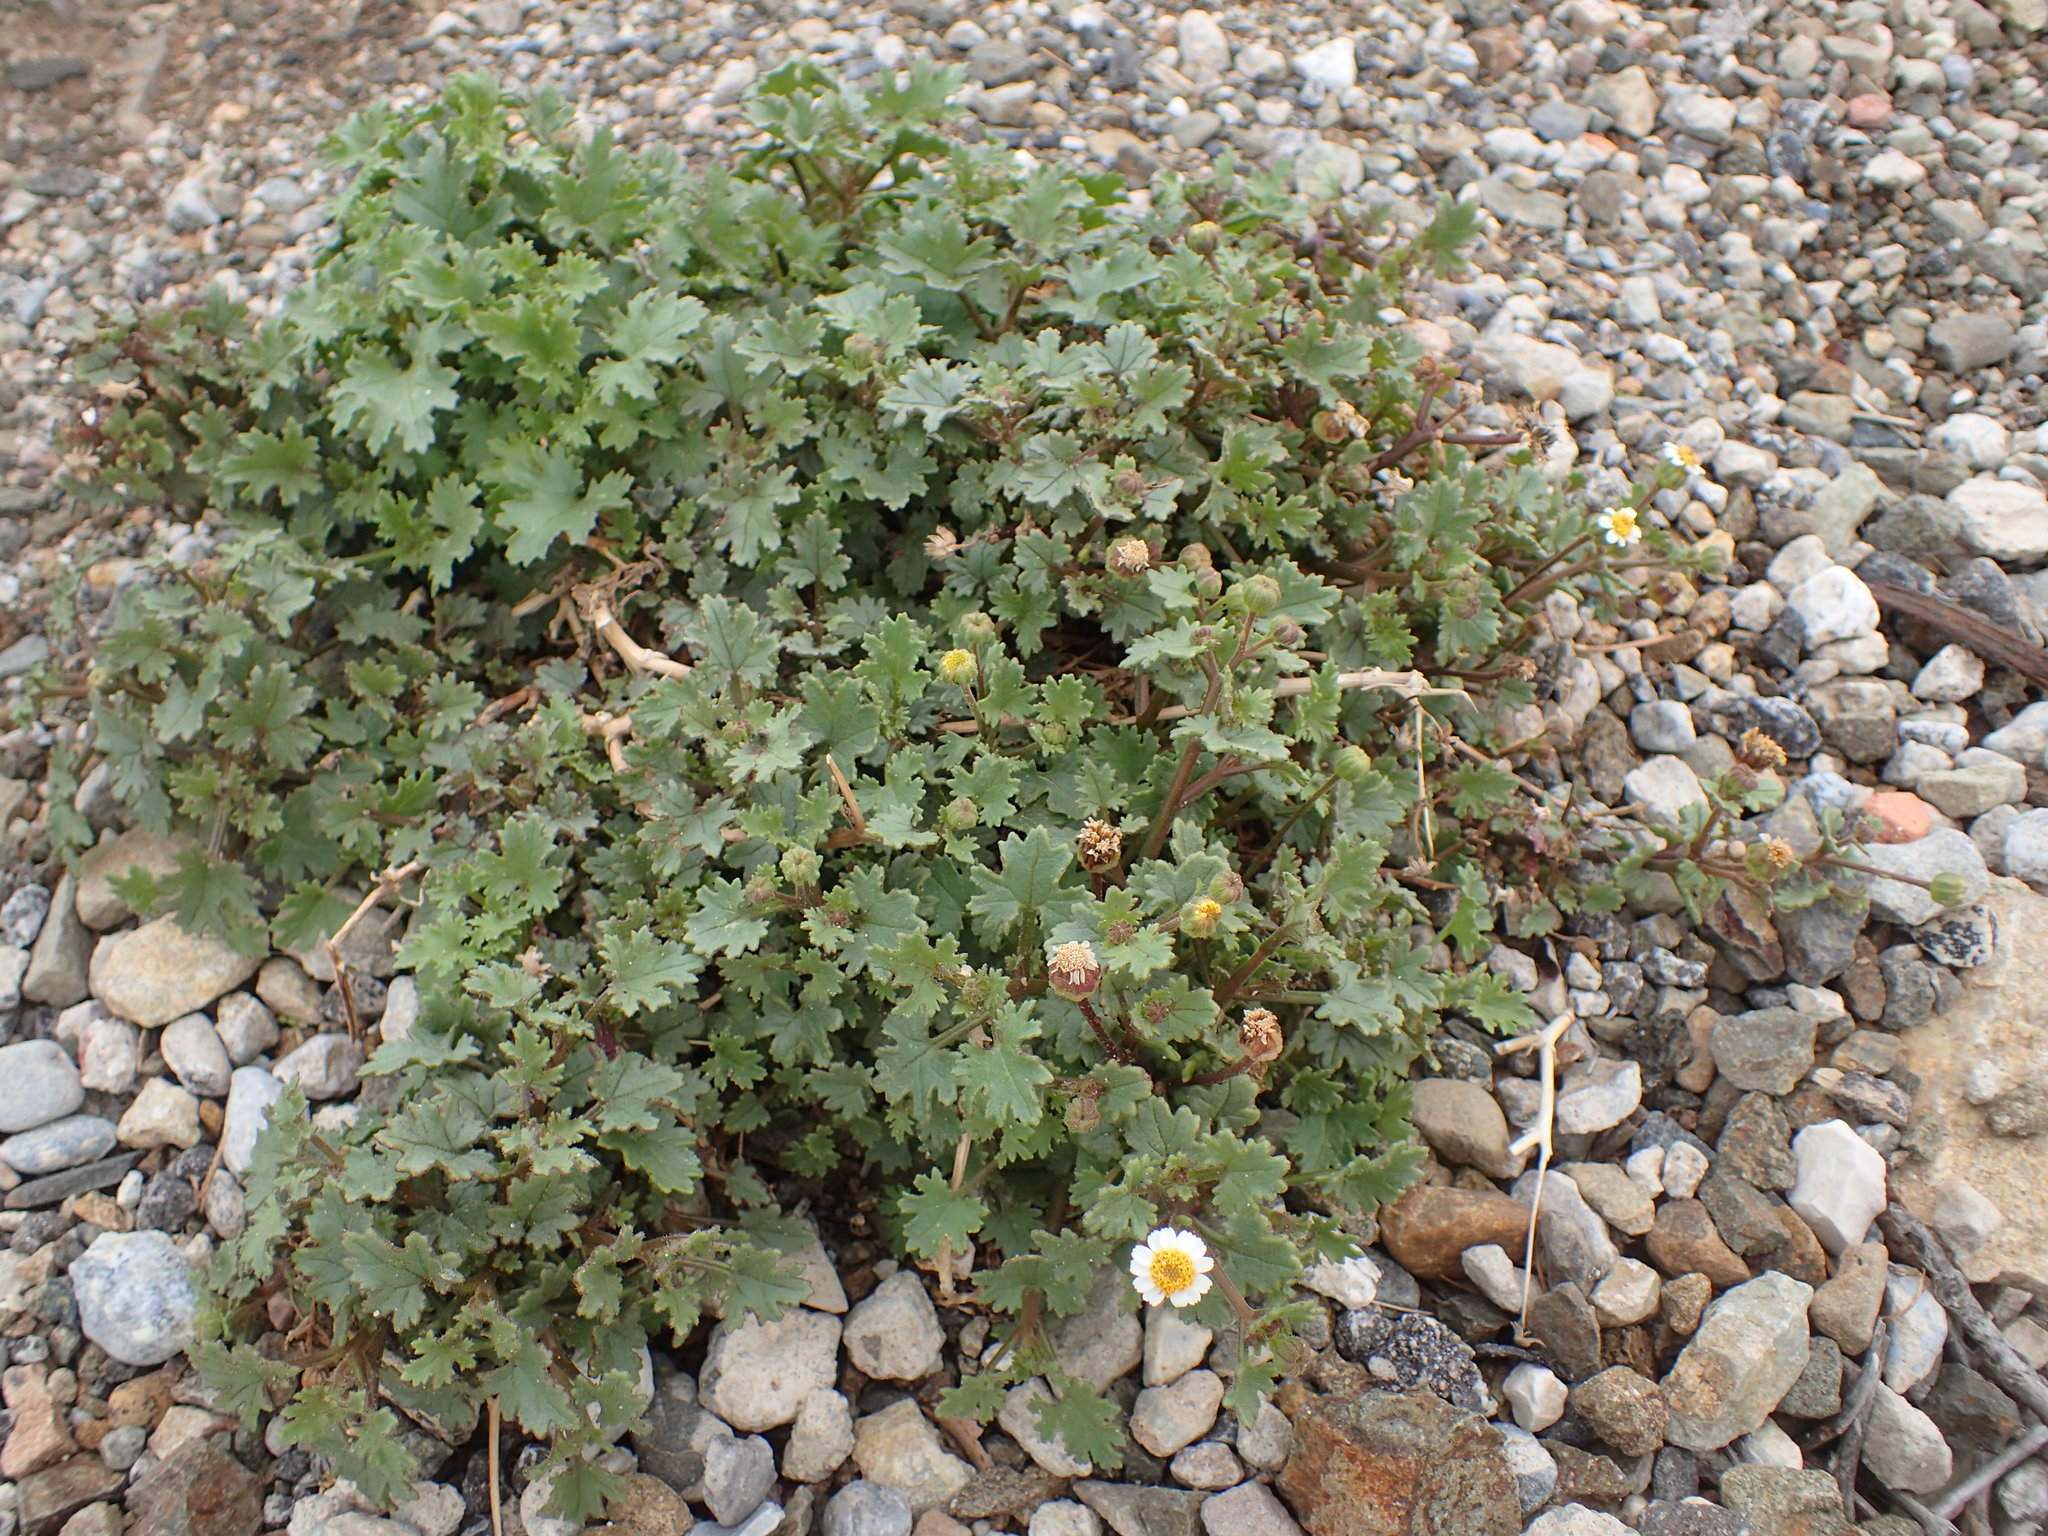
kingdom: Plantae
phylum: Tracheophyta
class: Magnoliopsida
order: Asterales
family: Asteraceae
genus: Laphamia
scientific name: Laphamia emoryi
